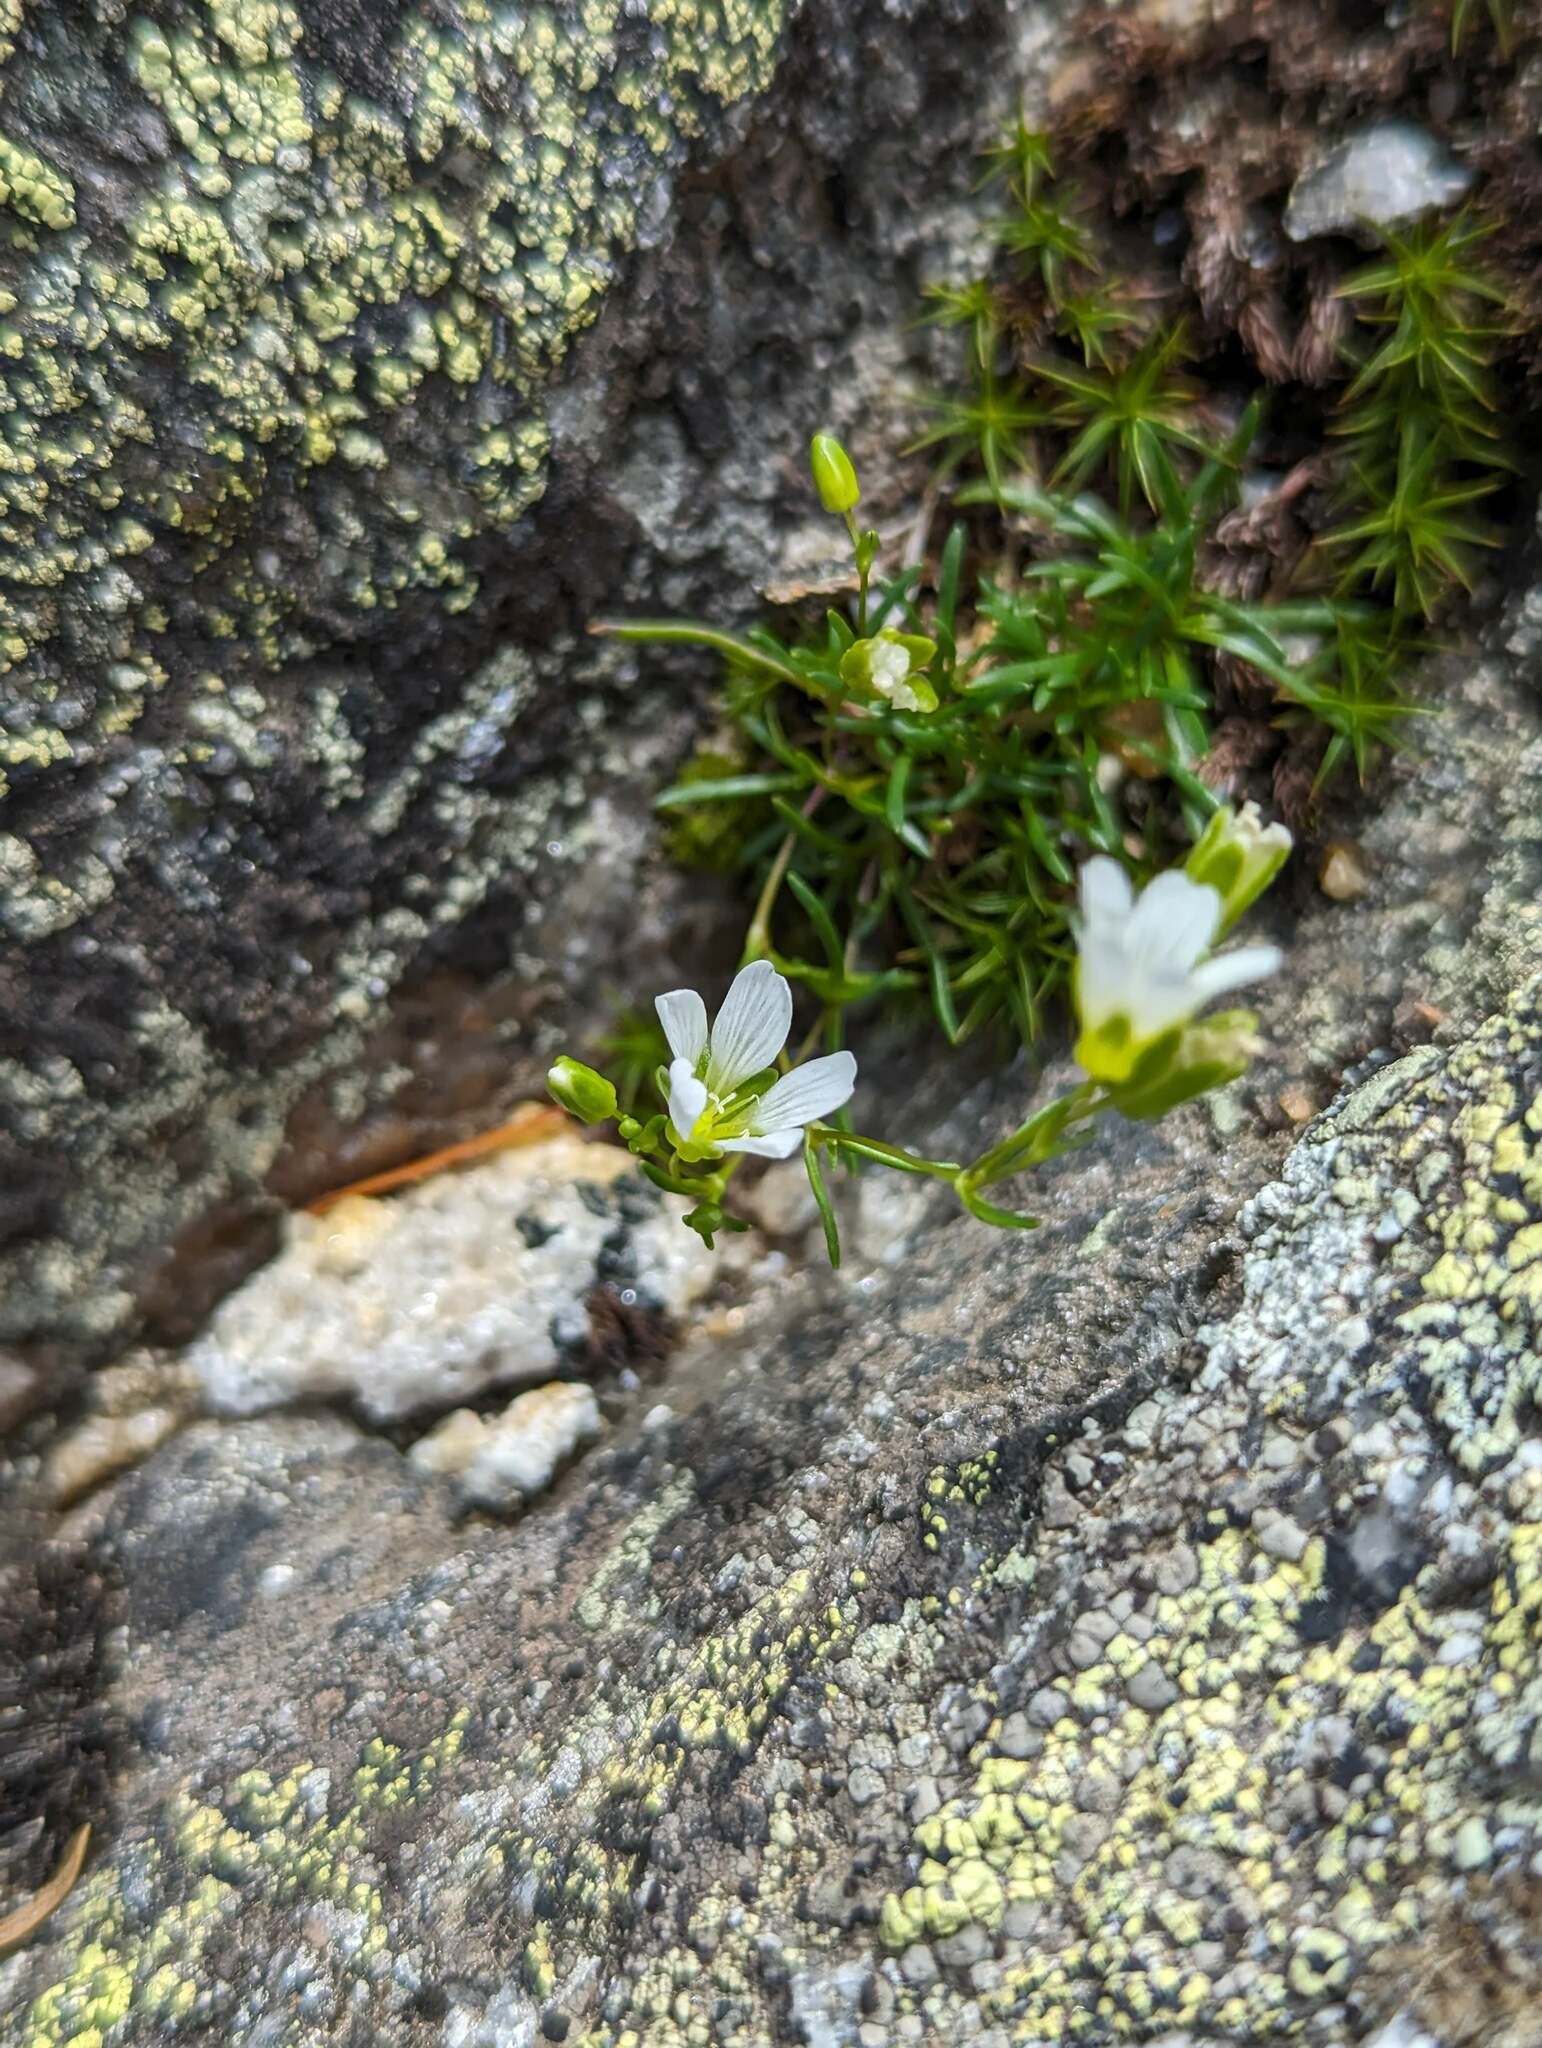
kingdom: Plantae
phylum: Tracheophyta
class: Magnoliopsida
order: Caryophyllales
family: Caryophyllaceae
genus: Geocarpon
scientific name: Geocarpon groenlandicum
